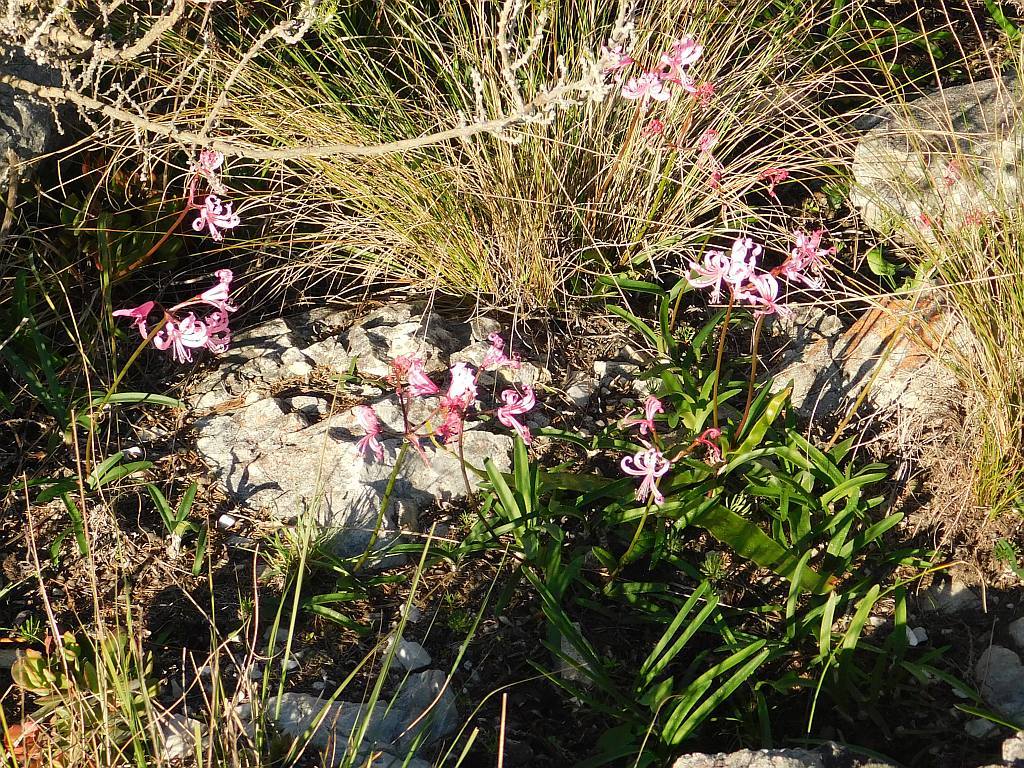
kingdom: Plantae
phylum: Tracheophyta
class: Liliopsida
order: Asparagales
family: Amaryllidaceae
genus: Nerine
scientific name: Nerine humilis
